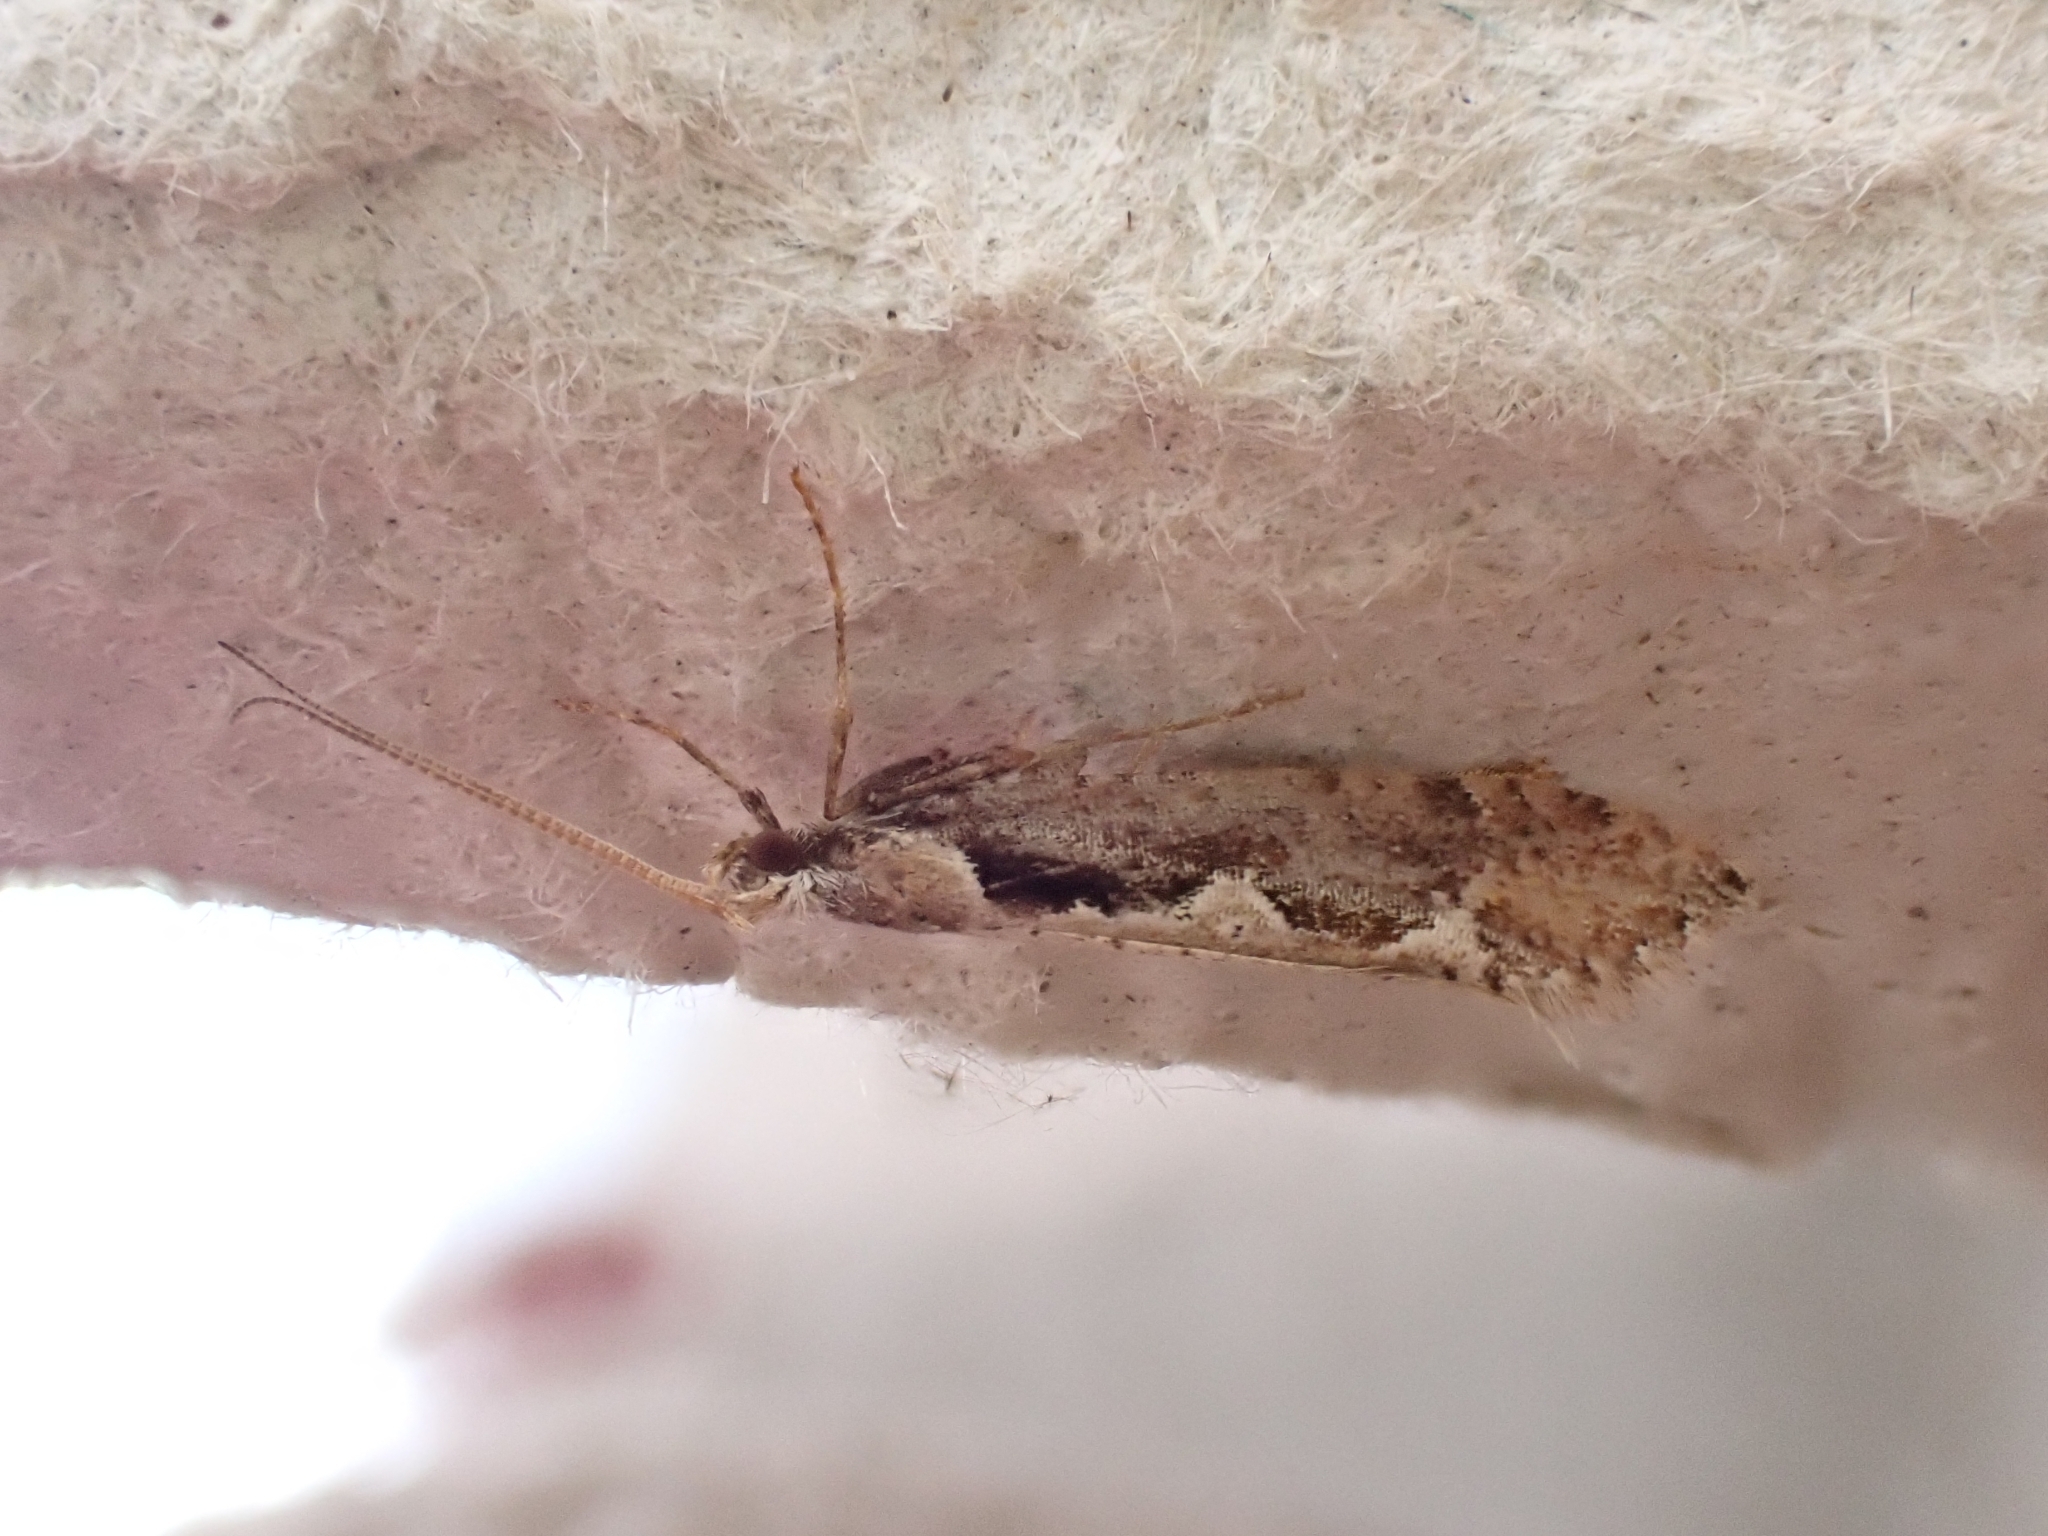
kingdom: Animalia
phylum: Arthropoda
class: Insecta
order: Lepidoptera
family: Plutellidae
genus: Plutella
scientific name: Plutella xylostella
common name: Diamond-back moth
